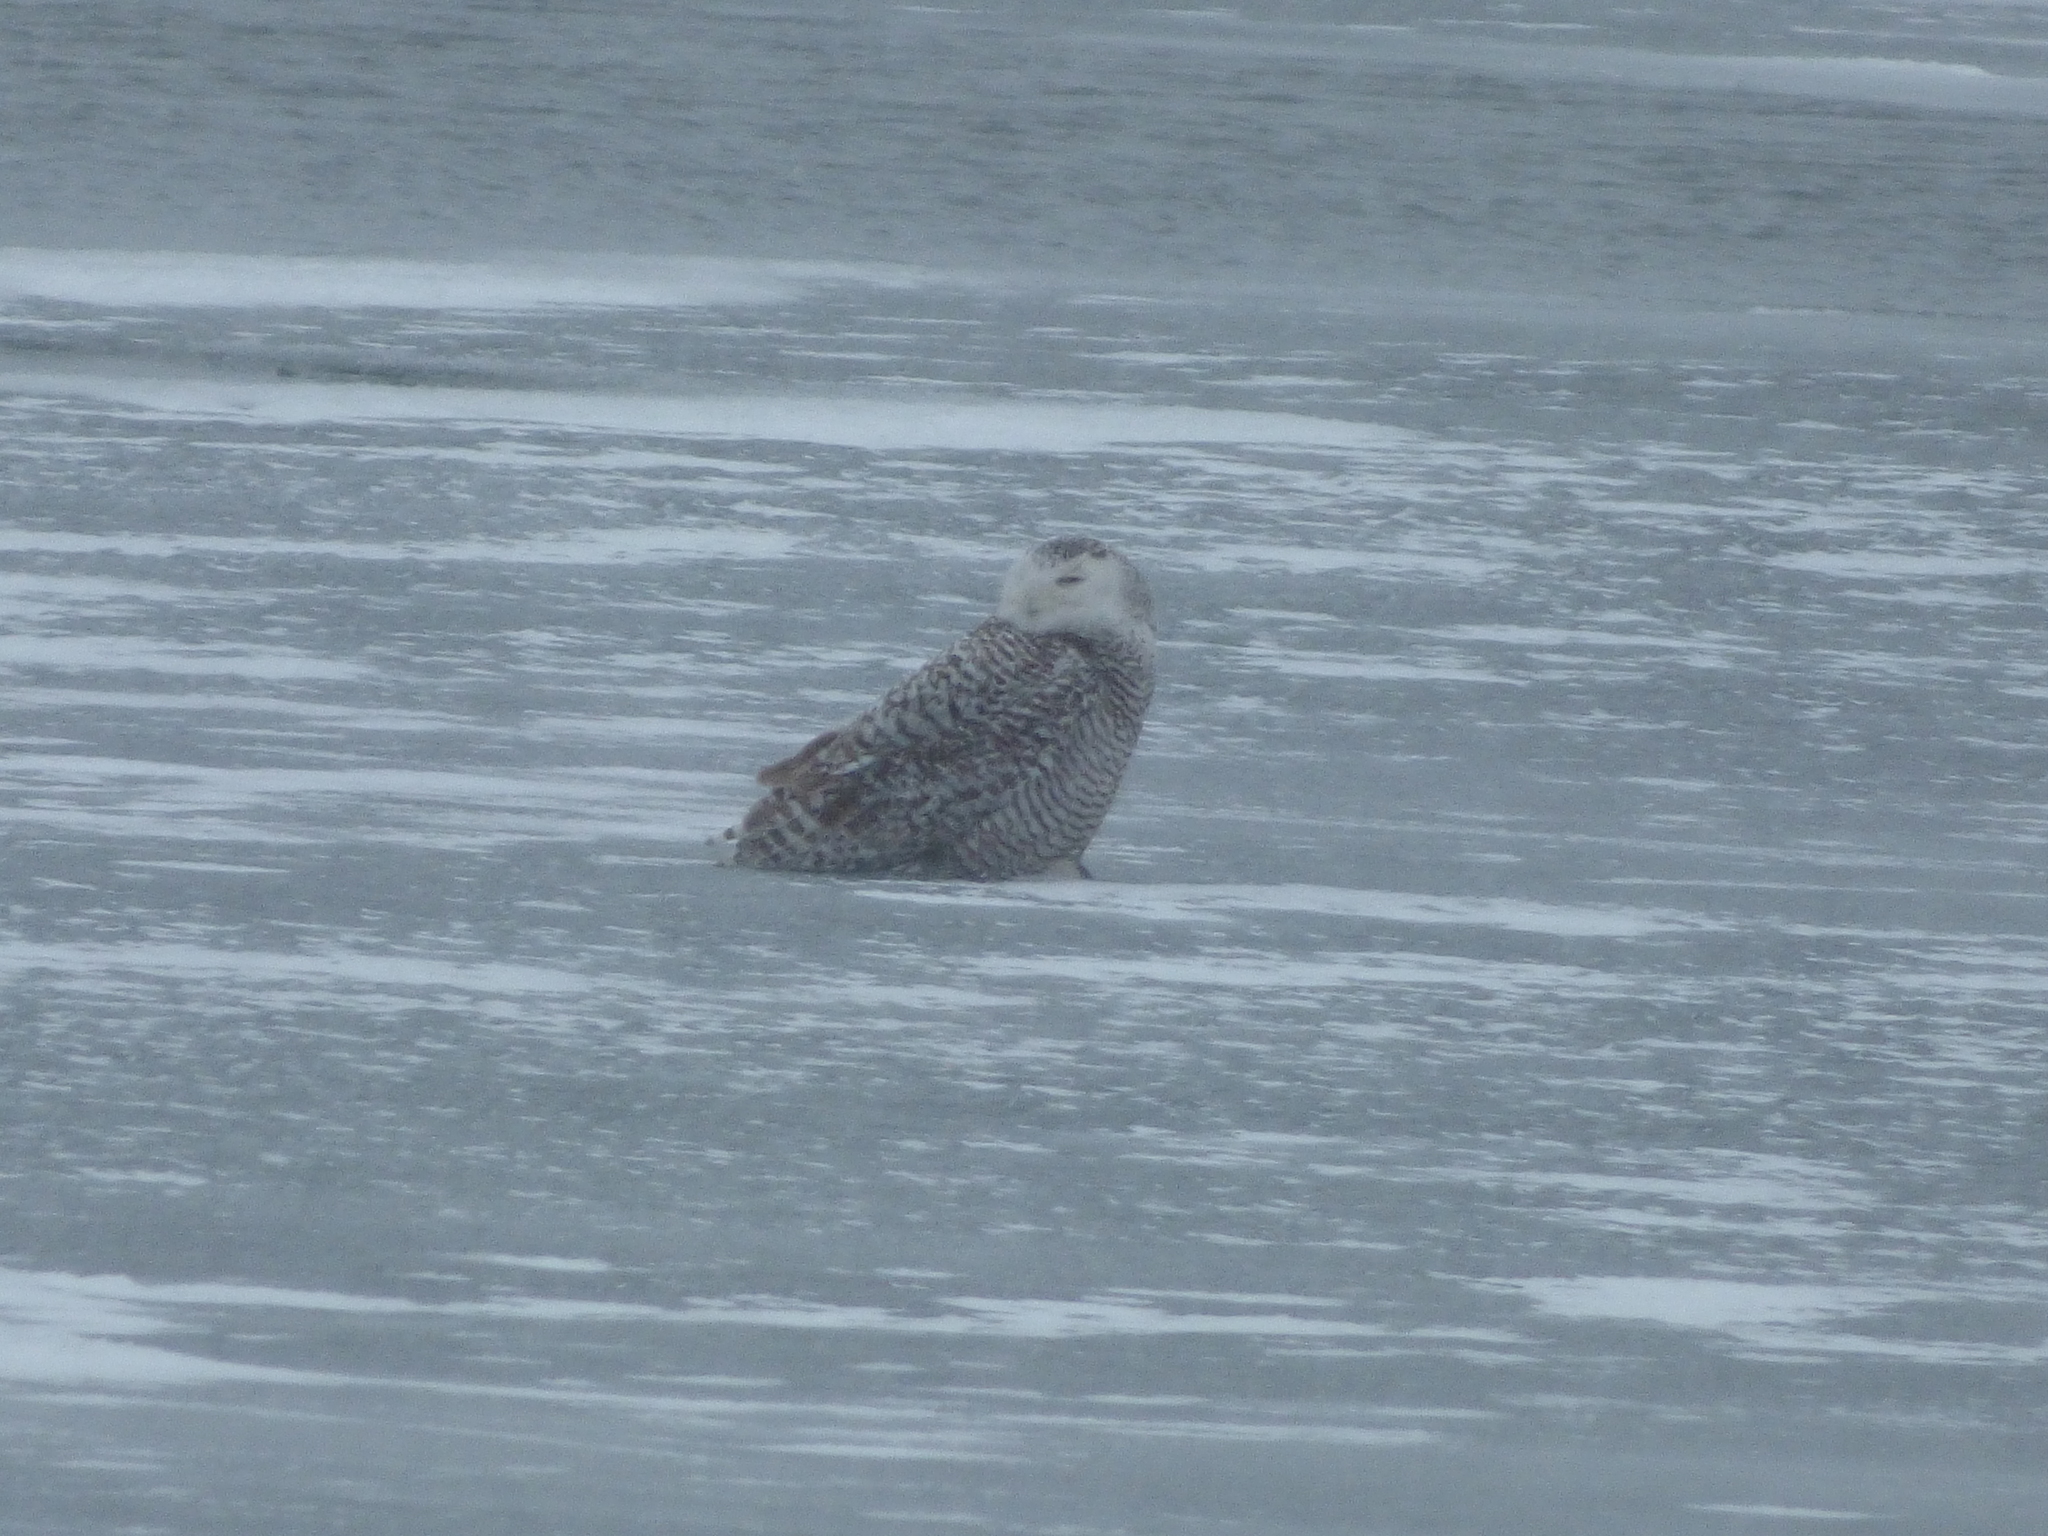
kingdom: Animalia
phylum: Chordata
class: Aves
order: Strigiformes
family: Strigidae
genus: Bubo
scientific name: Bubo scandiacus
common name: Snowy owl
